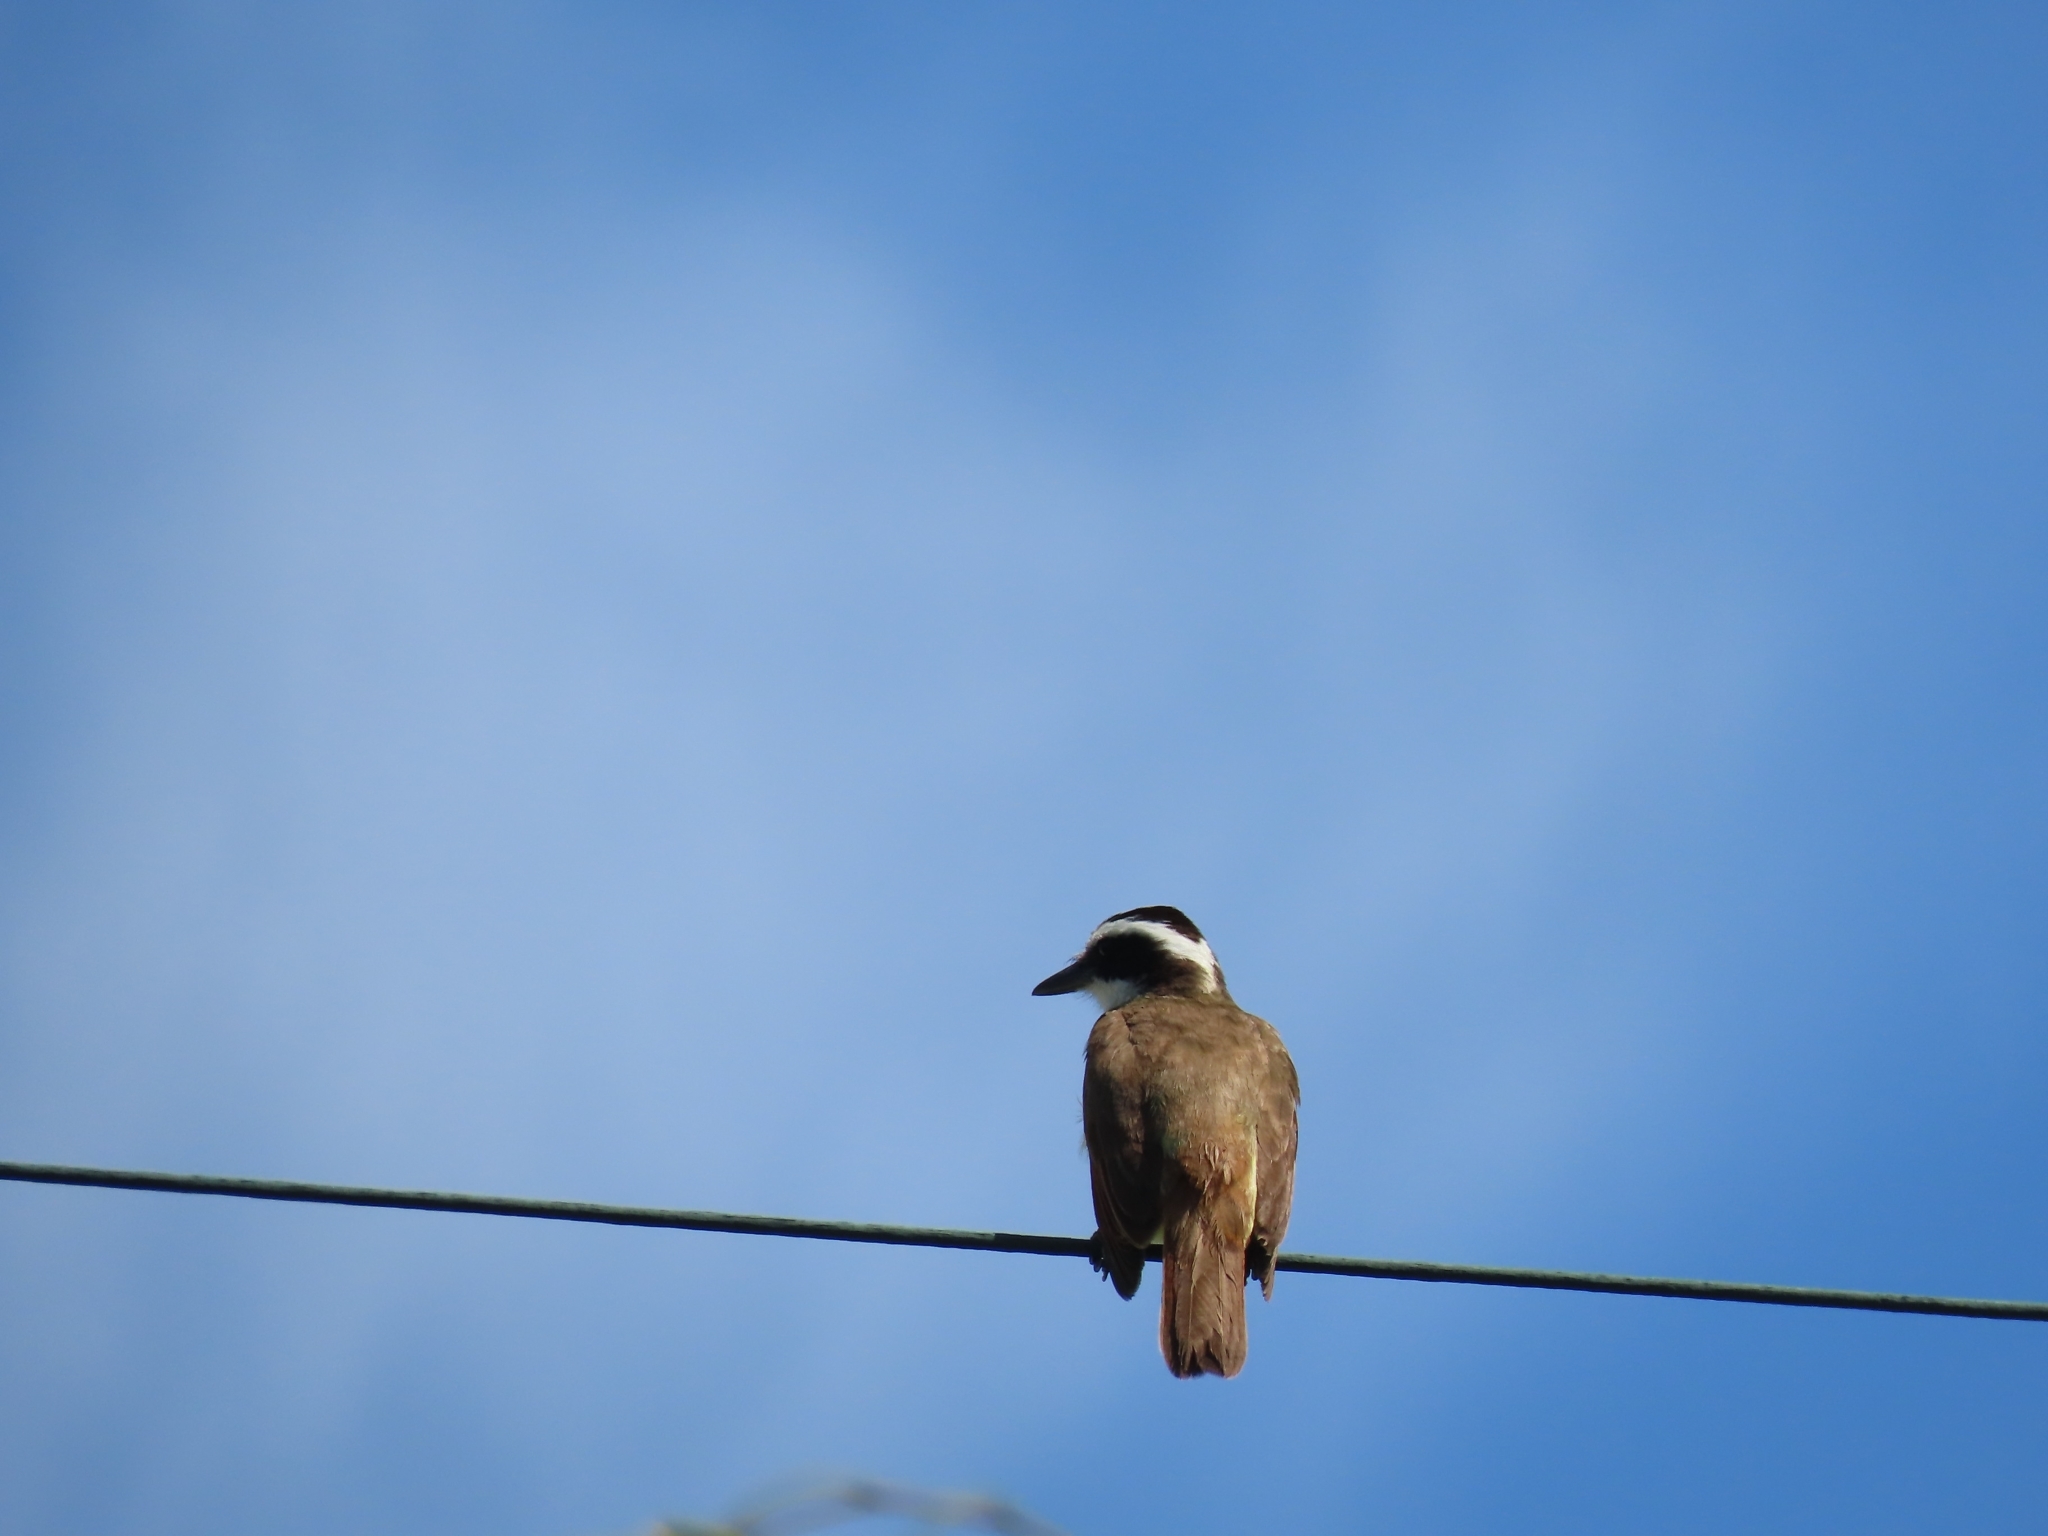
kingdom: Animalia
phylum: Chordata
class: Aves
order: Passeriformes
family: Tyrannidae
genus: Pitangus
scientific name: Pitangus sulphuratus
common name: Great kiskadee
